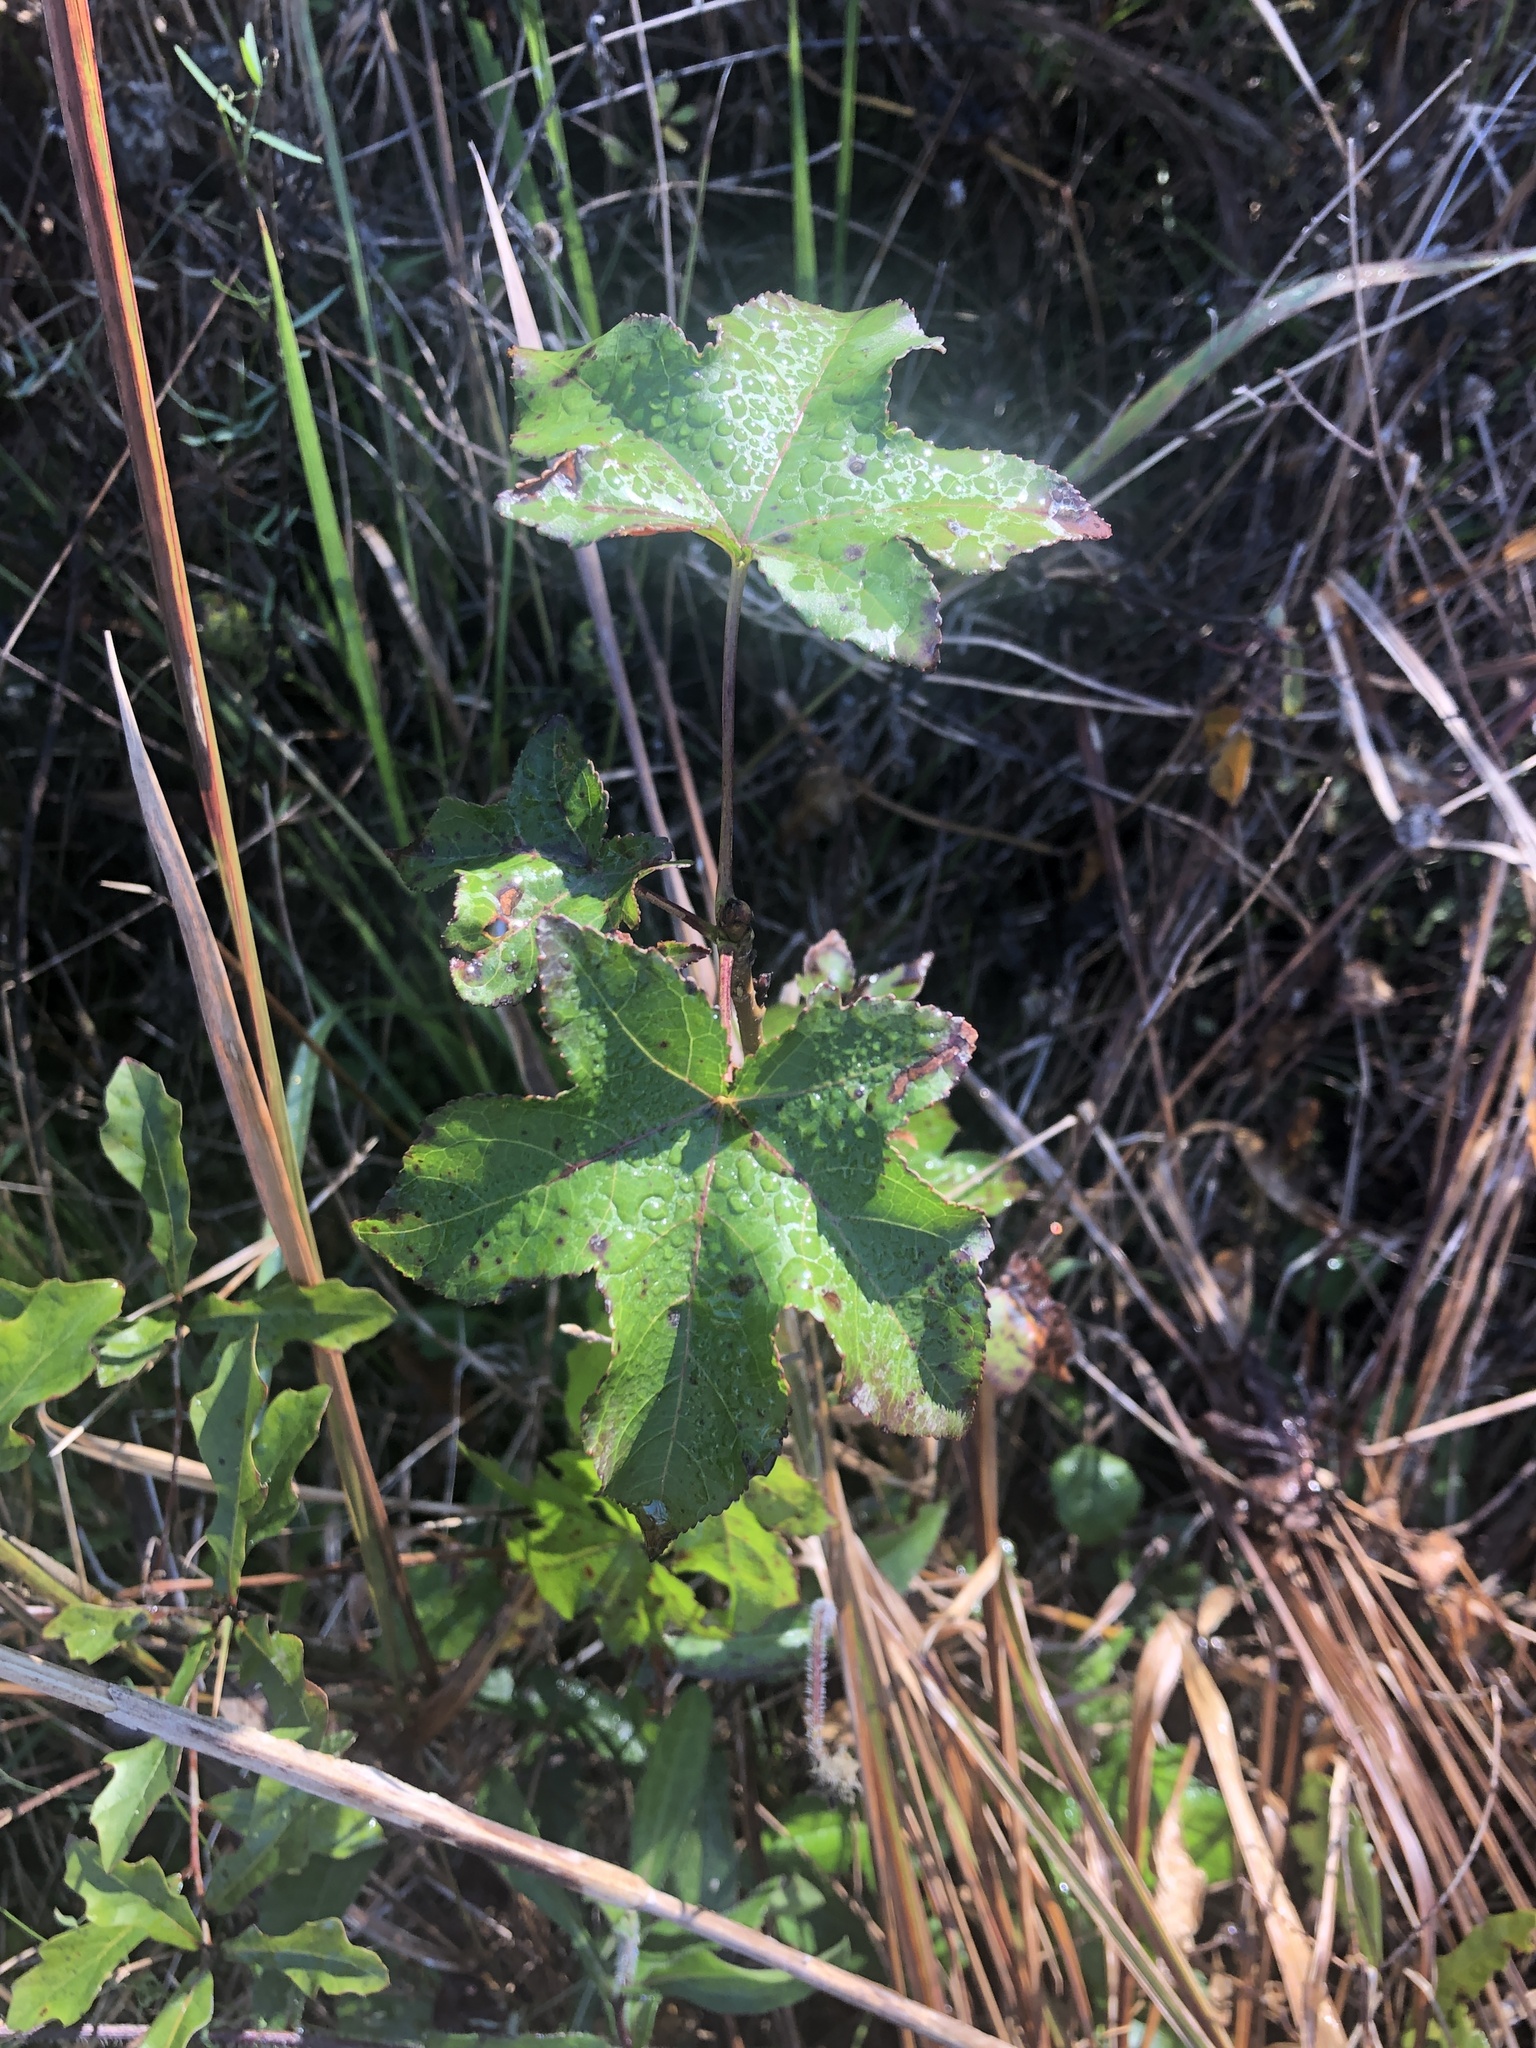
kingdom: Plantae
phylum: Tracheophyta
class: Magnoliopsida
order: Saxifragales
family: Altingiaceae
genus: Liquidambar
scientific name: Liquidambar styraciflua
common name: Sweet gum
